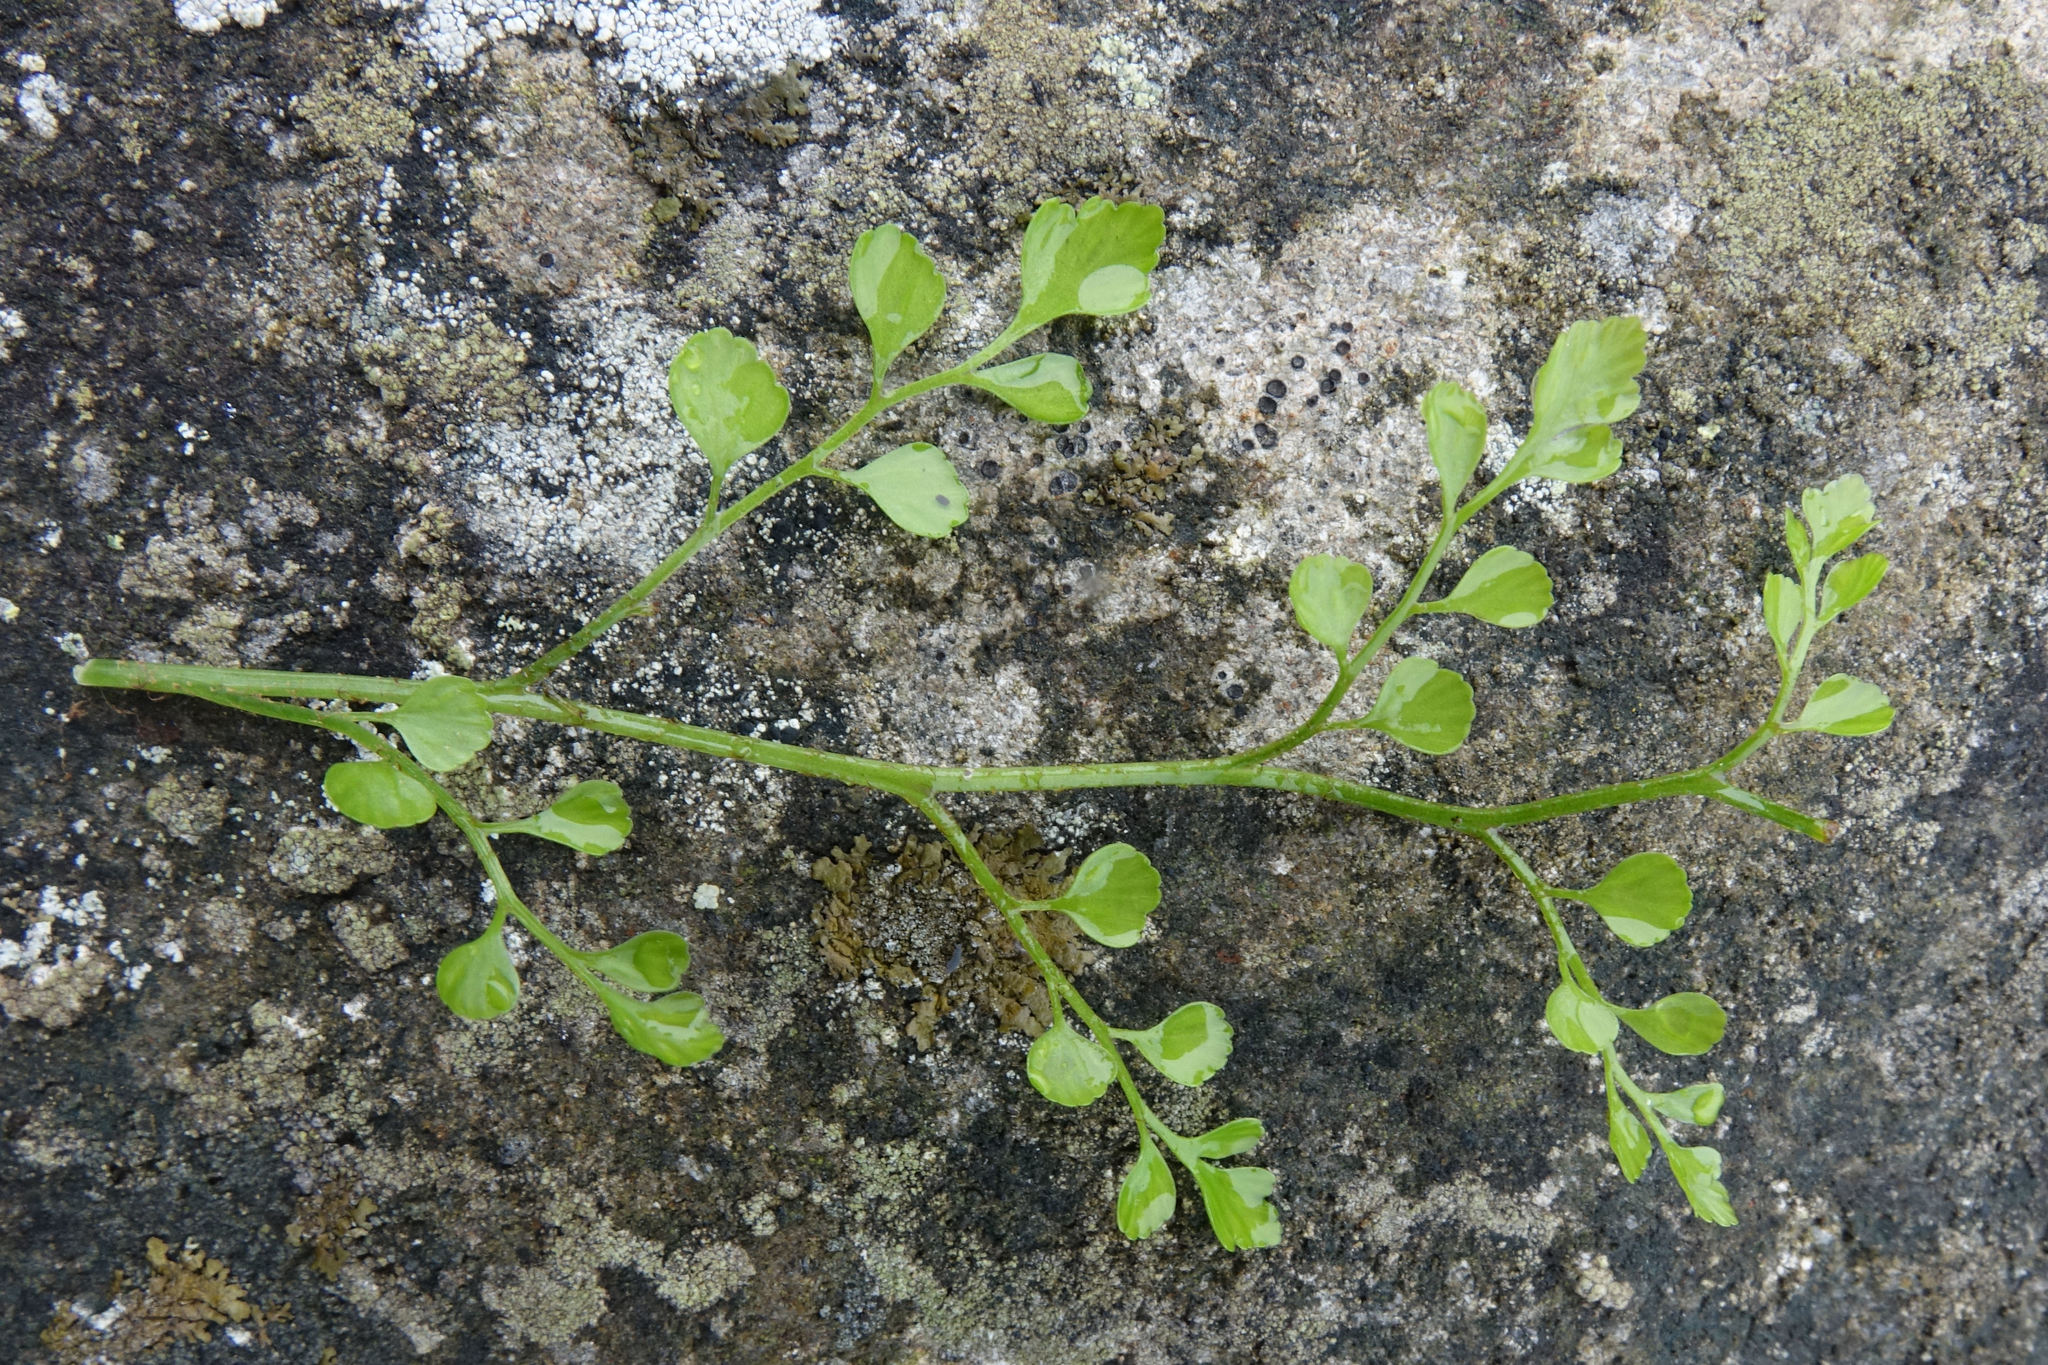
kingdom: Plantae
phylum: Tracheophyta
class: Polypodiopsida
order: Polypodiales
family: Aspleniaceae
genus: Asplenium
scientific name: Asplenium hookerianum
